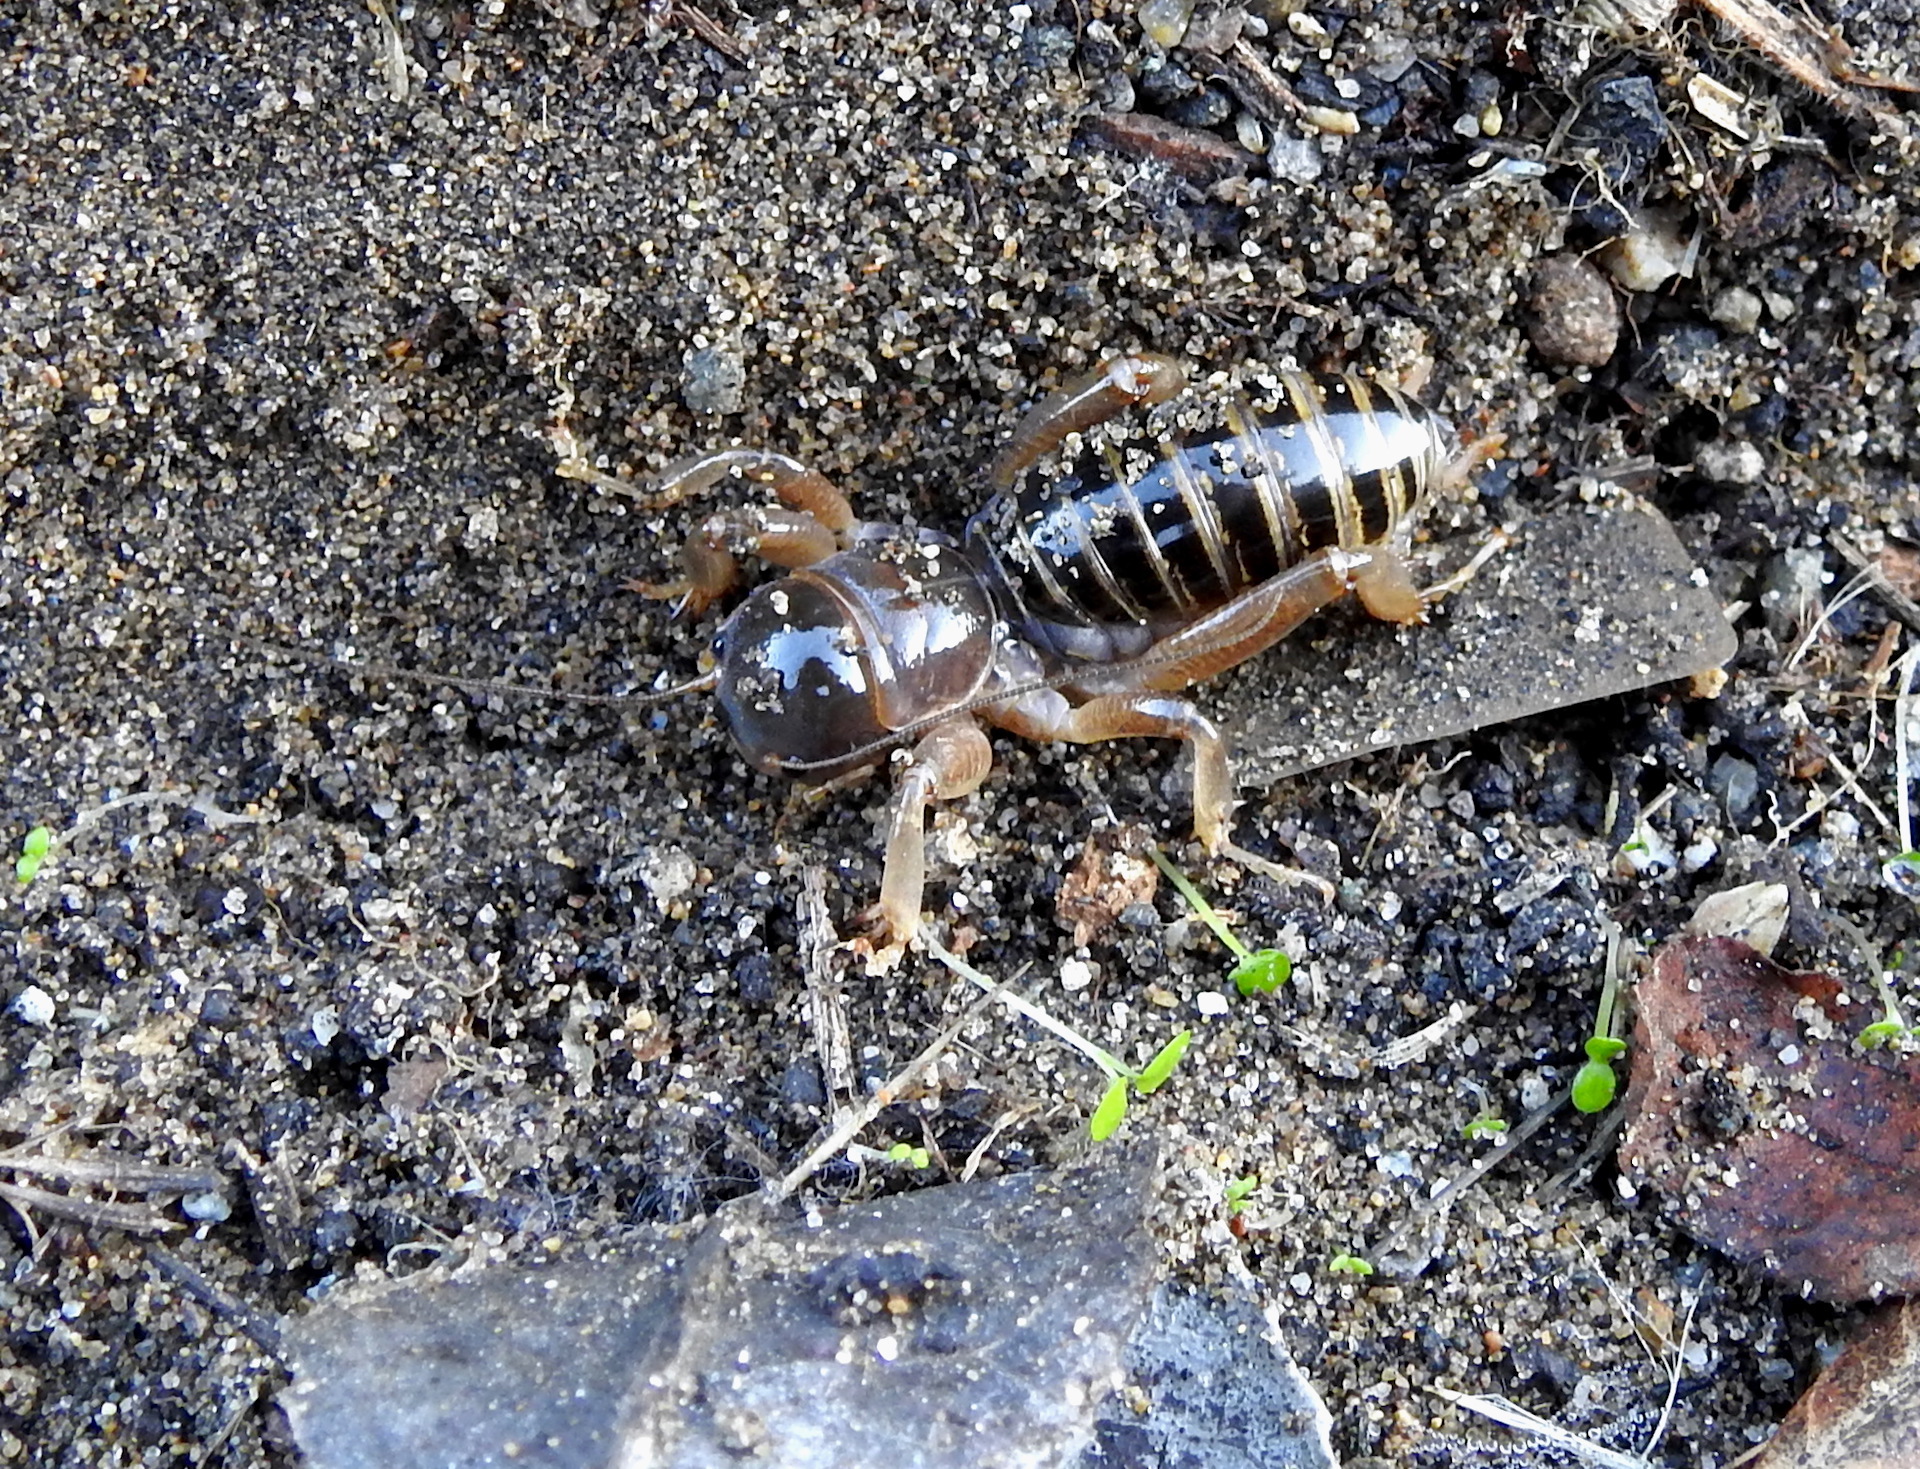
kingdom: Animalia
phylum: Arthropoda
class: Insecta
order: Orthoptera
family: Stenopelmatidae
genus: Ammopelmatus
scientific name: Ammopelmatus
